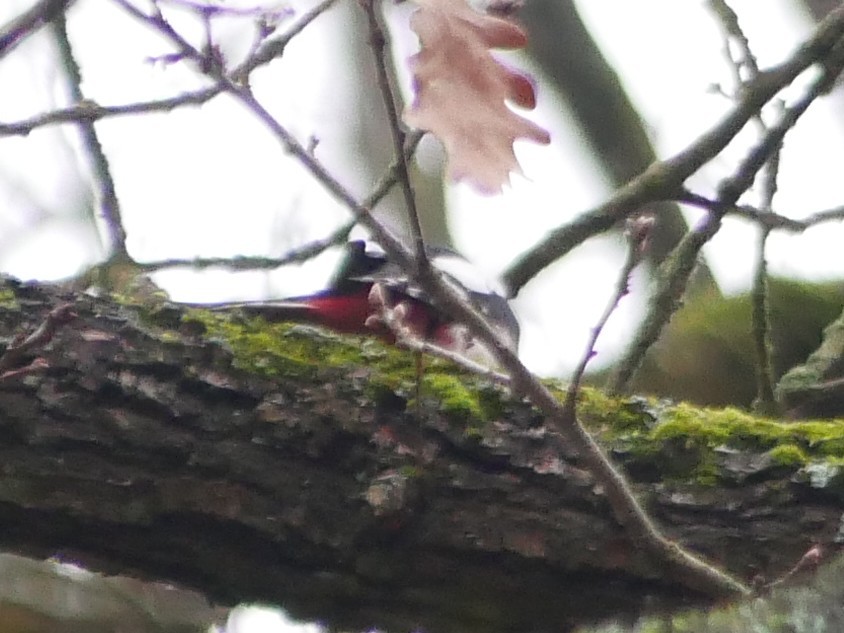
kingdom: Animalia
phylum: Chordata
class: Aves
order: Piciformes
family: Picidae
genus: Dendrocopos
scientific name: Dendrocopos major
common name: Great spotted woodpecker
